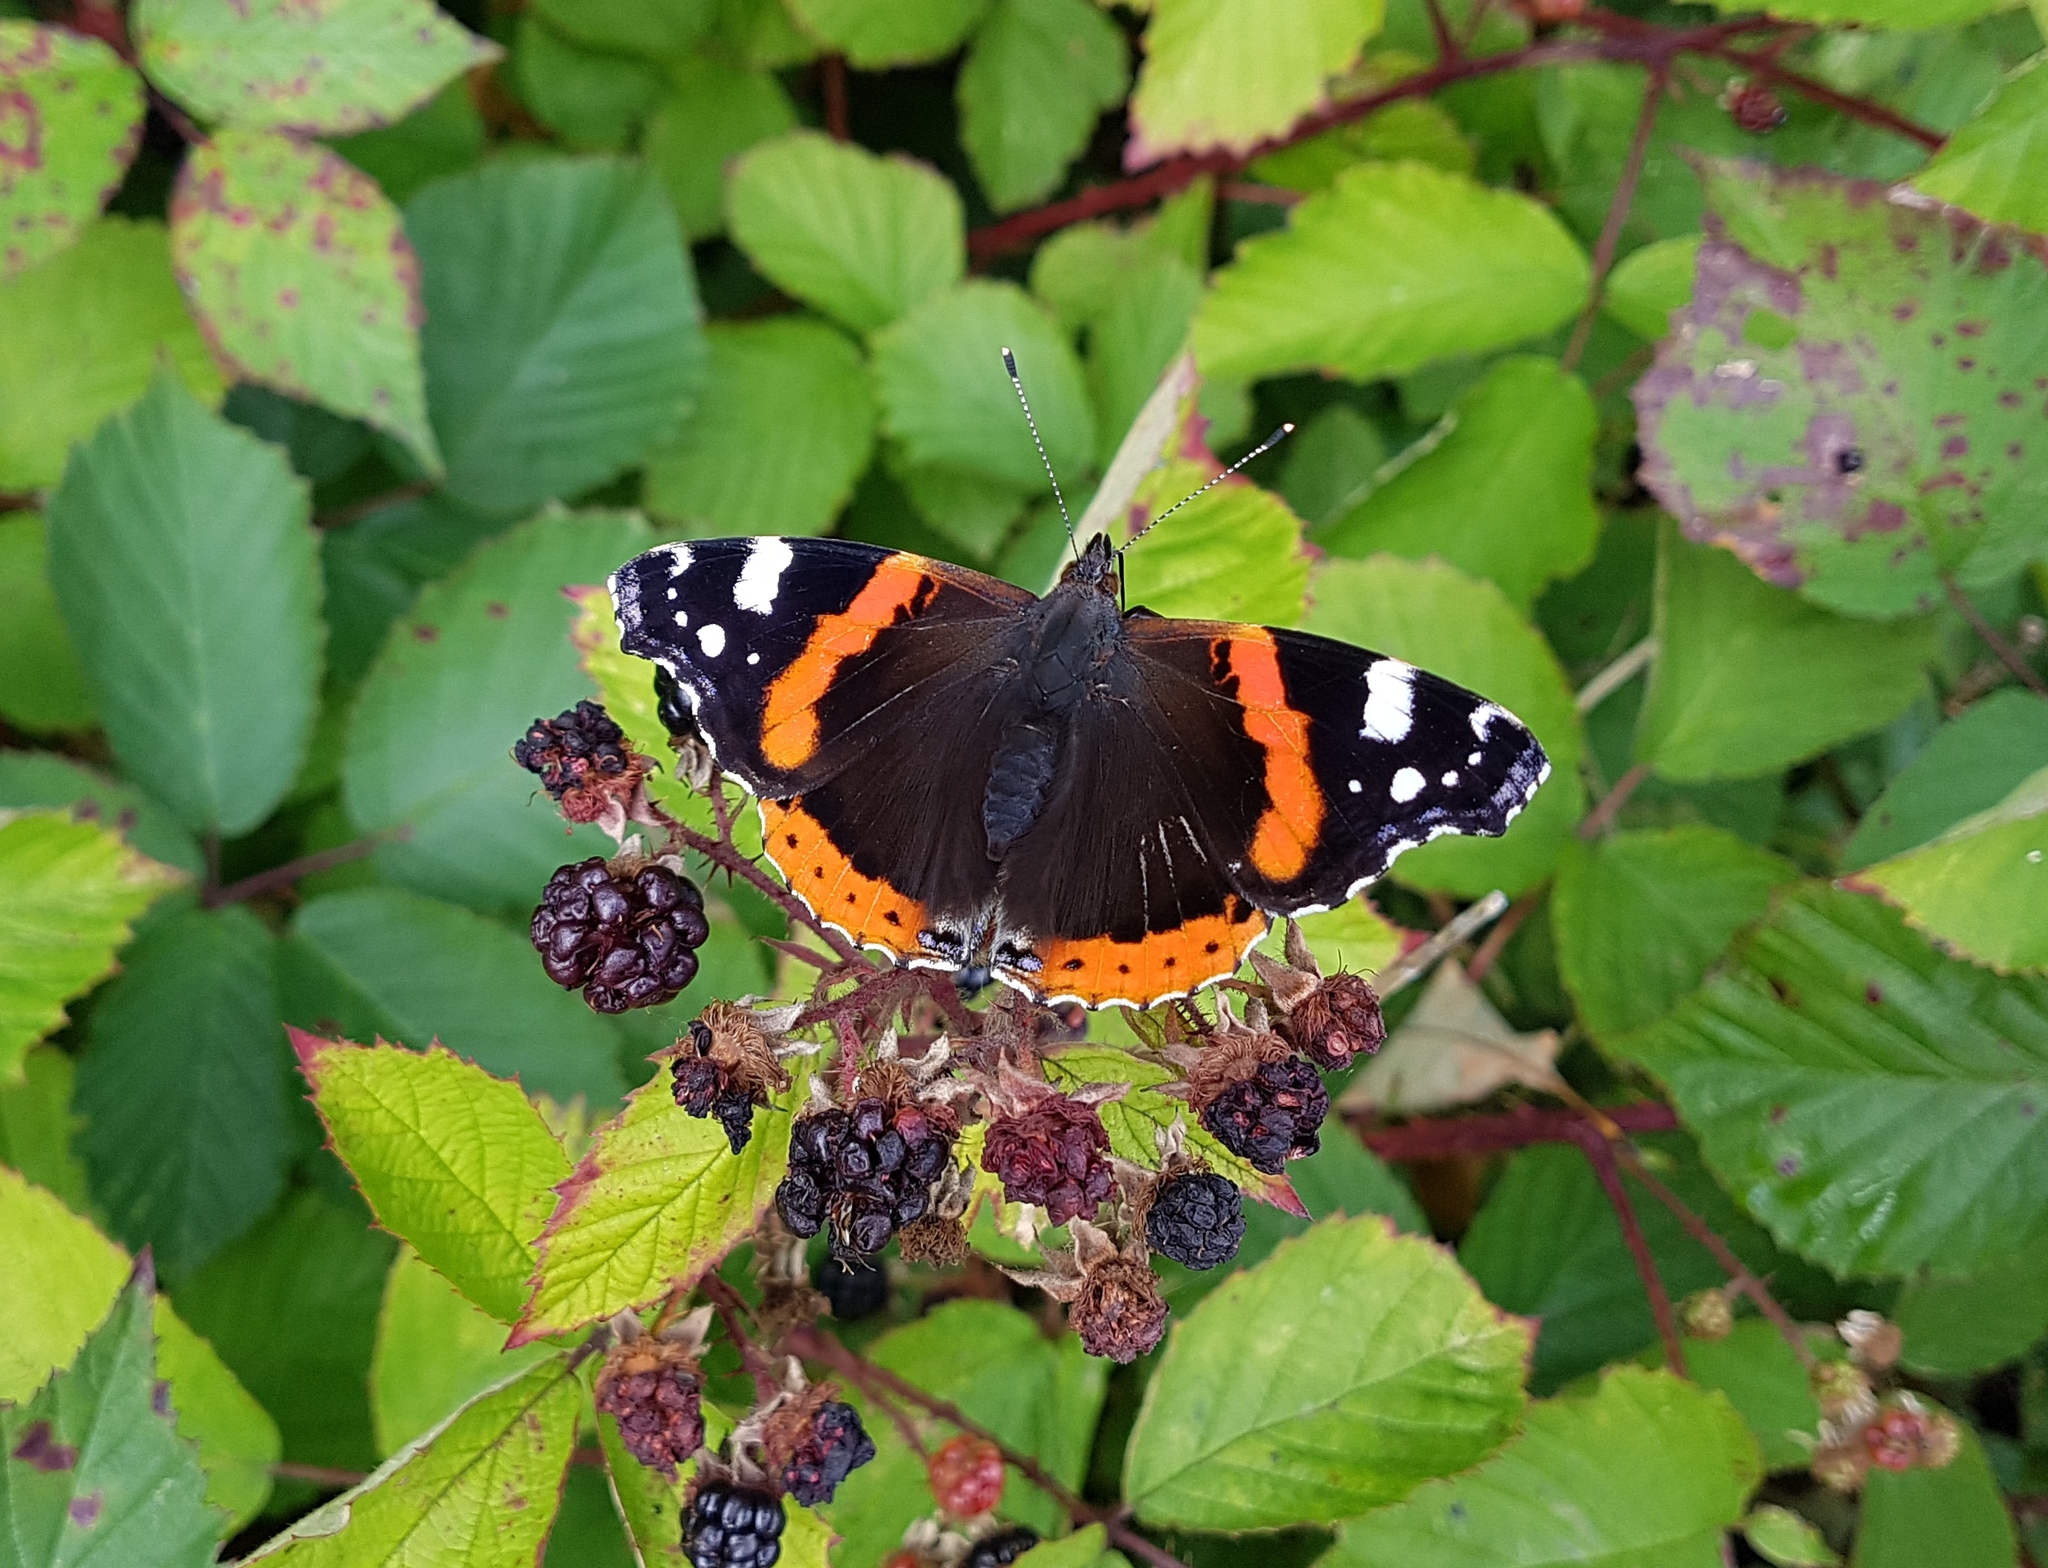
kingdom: Animalia
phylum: Arthropoda
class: Insecta
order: Lepidoptera
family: Nymphalidae
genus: Vanessa
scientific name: Vanessa atalanta
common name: Red admiral
